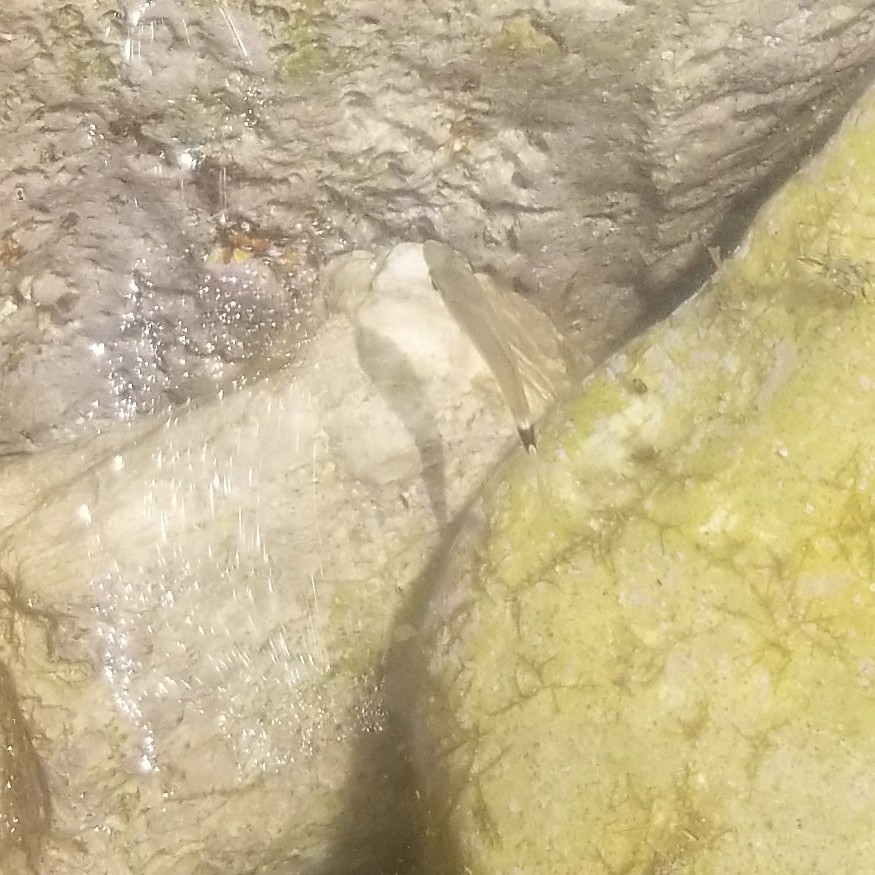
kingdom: Animalia
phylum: Chordata
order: Perciformes
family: Sparidae
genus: Oblada
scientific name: Oblada melanura
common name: Saddled seabream
